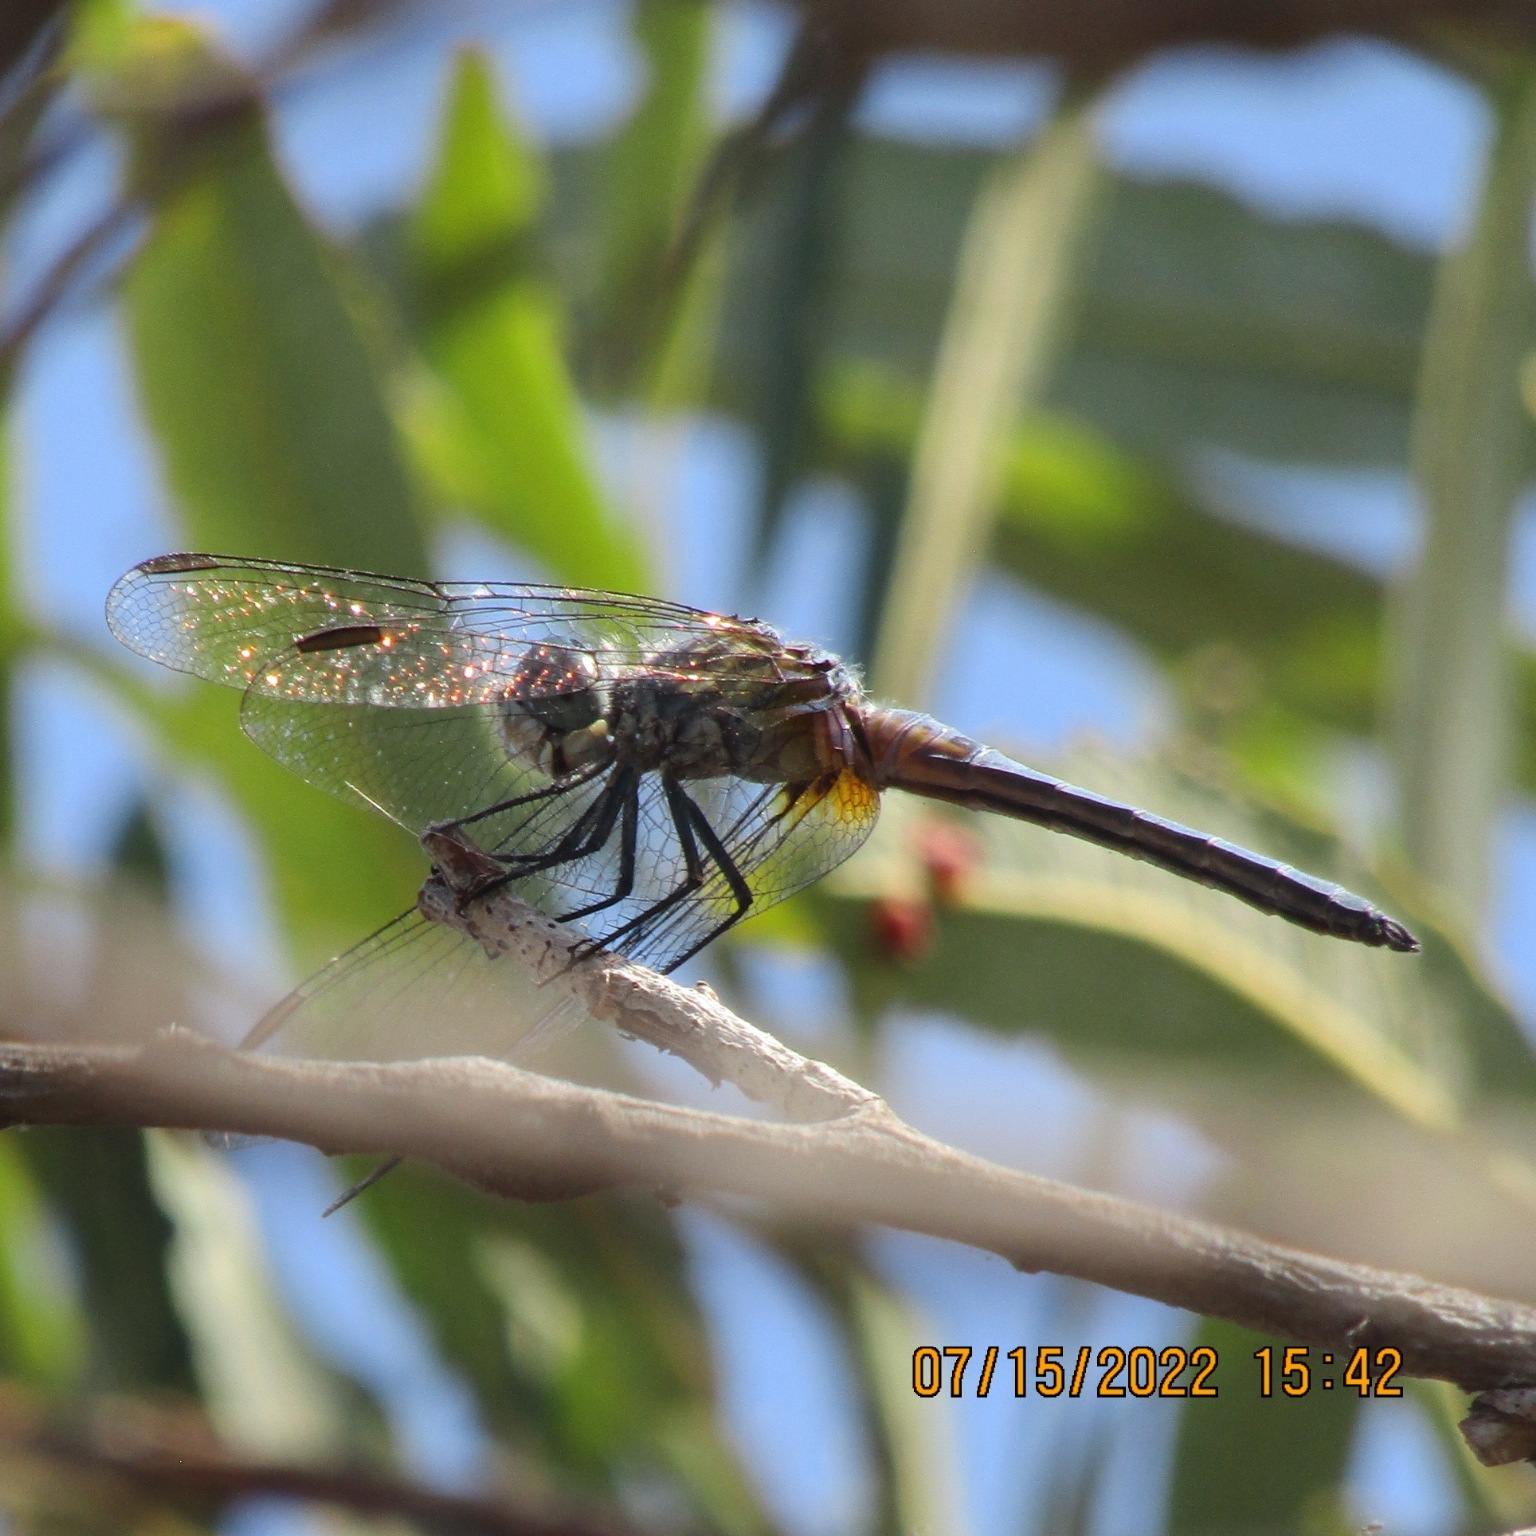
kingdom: Animalia
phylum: Arthropoda
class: Insecta
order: Odonata
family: Libellulidae
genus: Pachydiplax
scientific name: Pachydiplax longipennis
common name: Blue dasher
